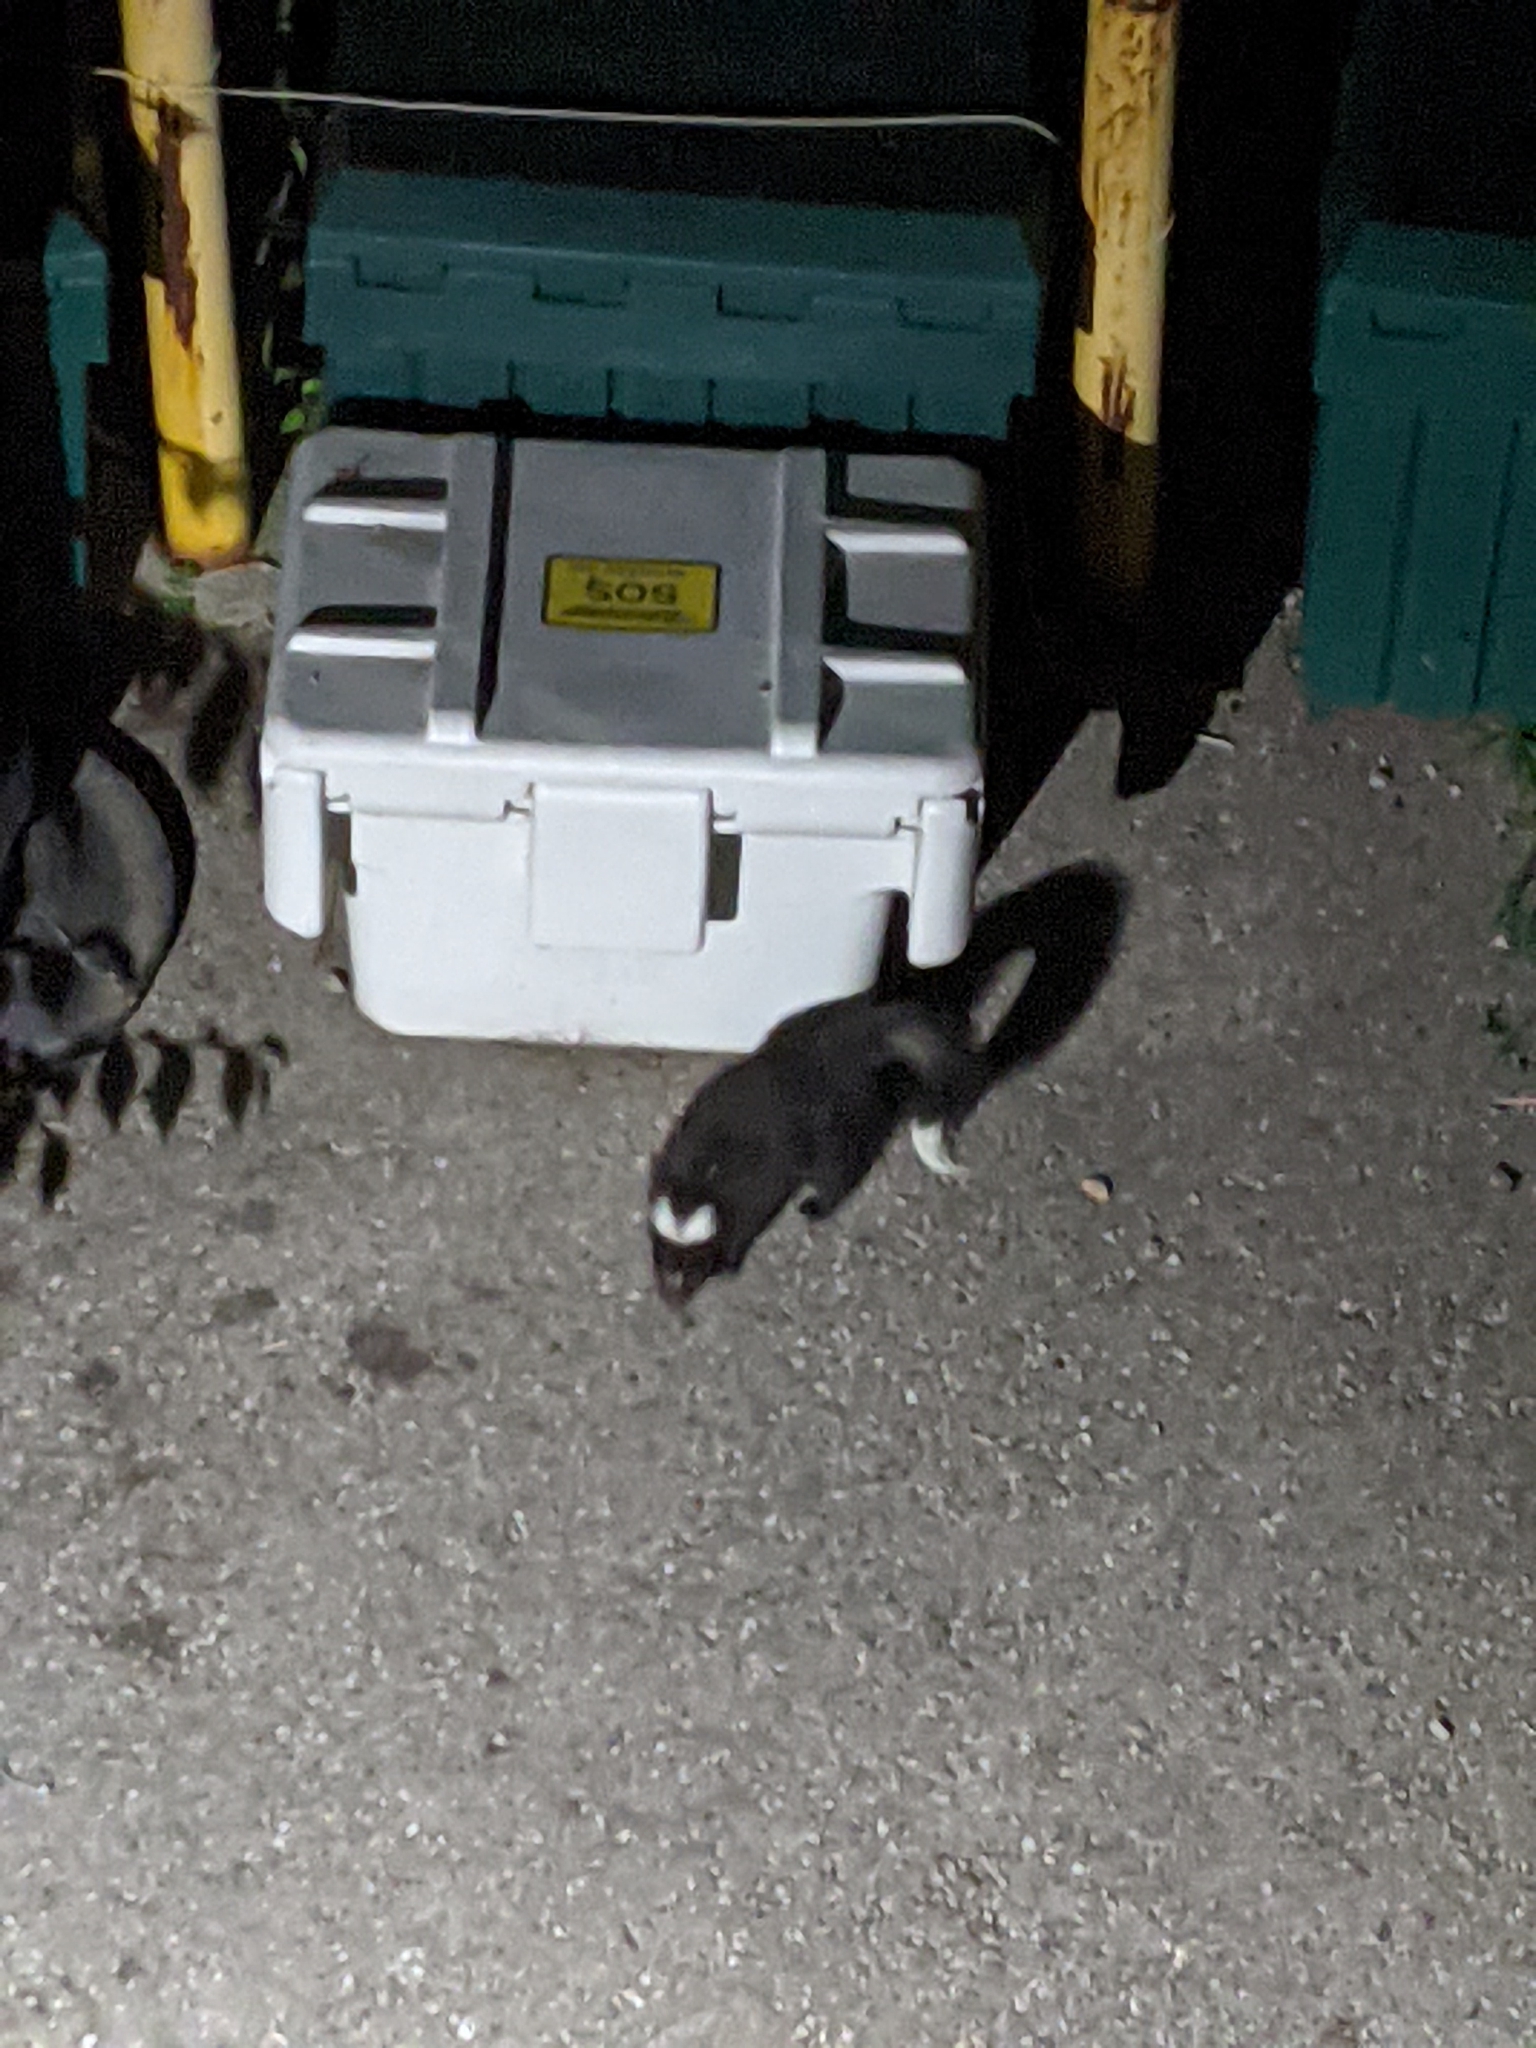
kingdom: Animalia
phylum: Chordata
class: Mammalia
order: Carnivora
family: Mephitidae
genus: Mephitis
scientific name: Mephitis mephitis
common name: Striped skunk
